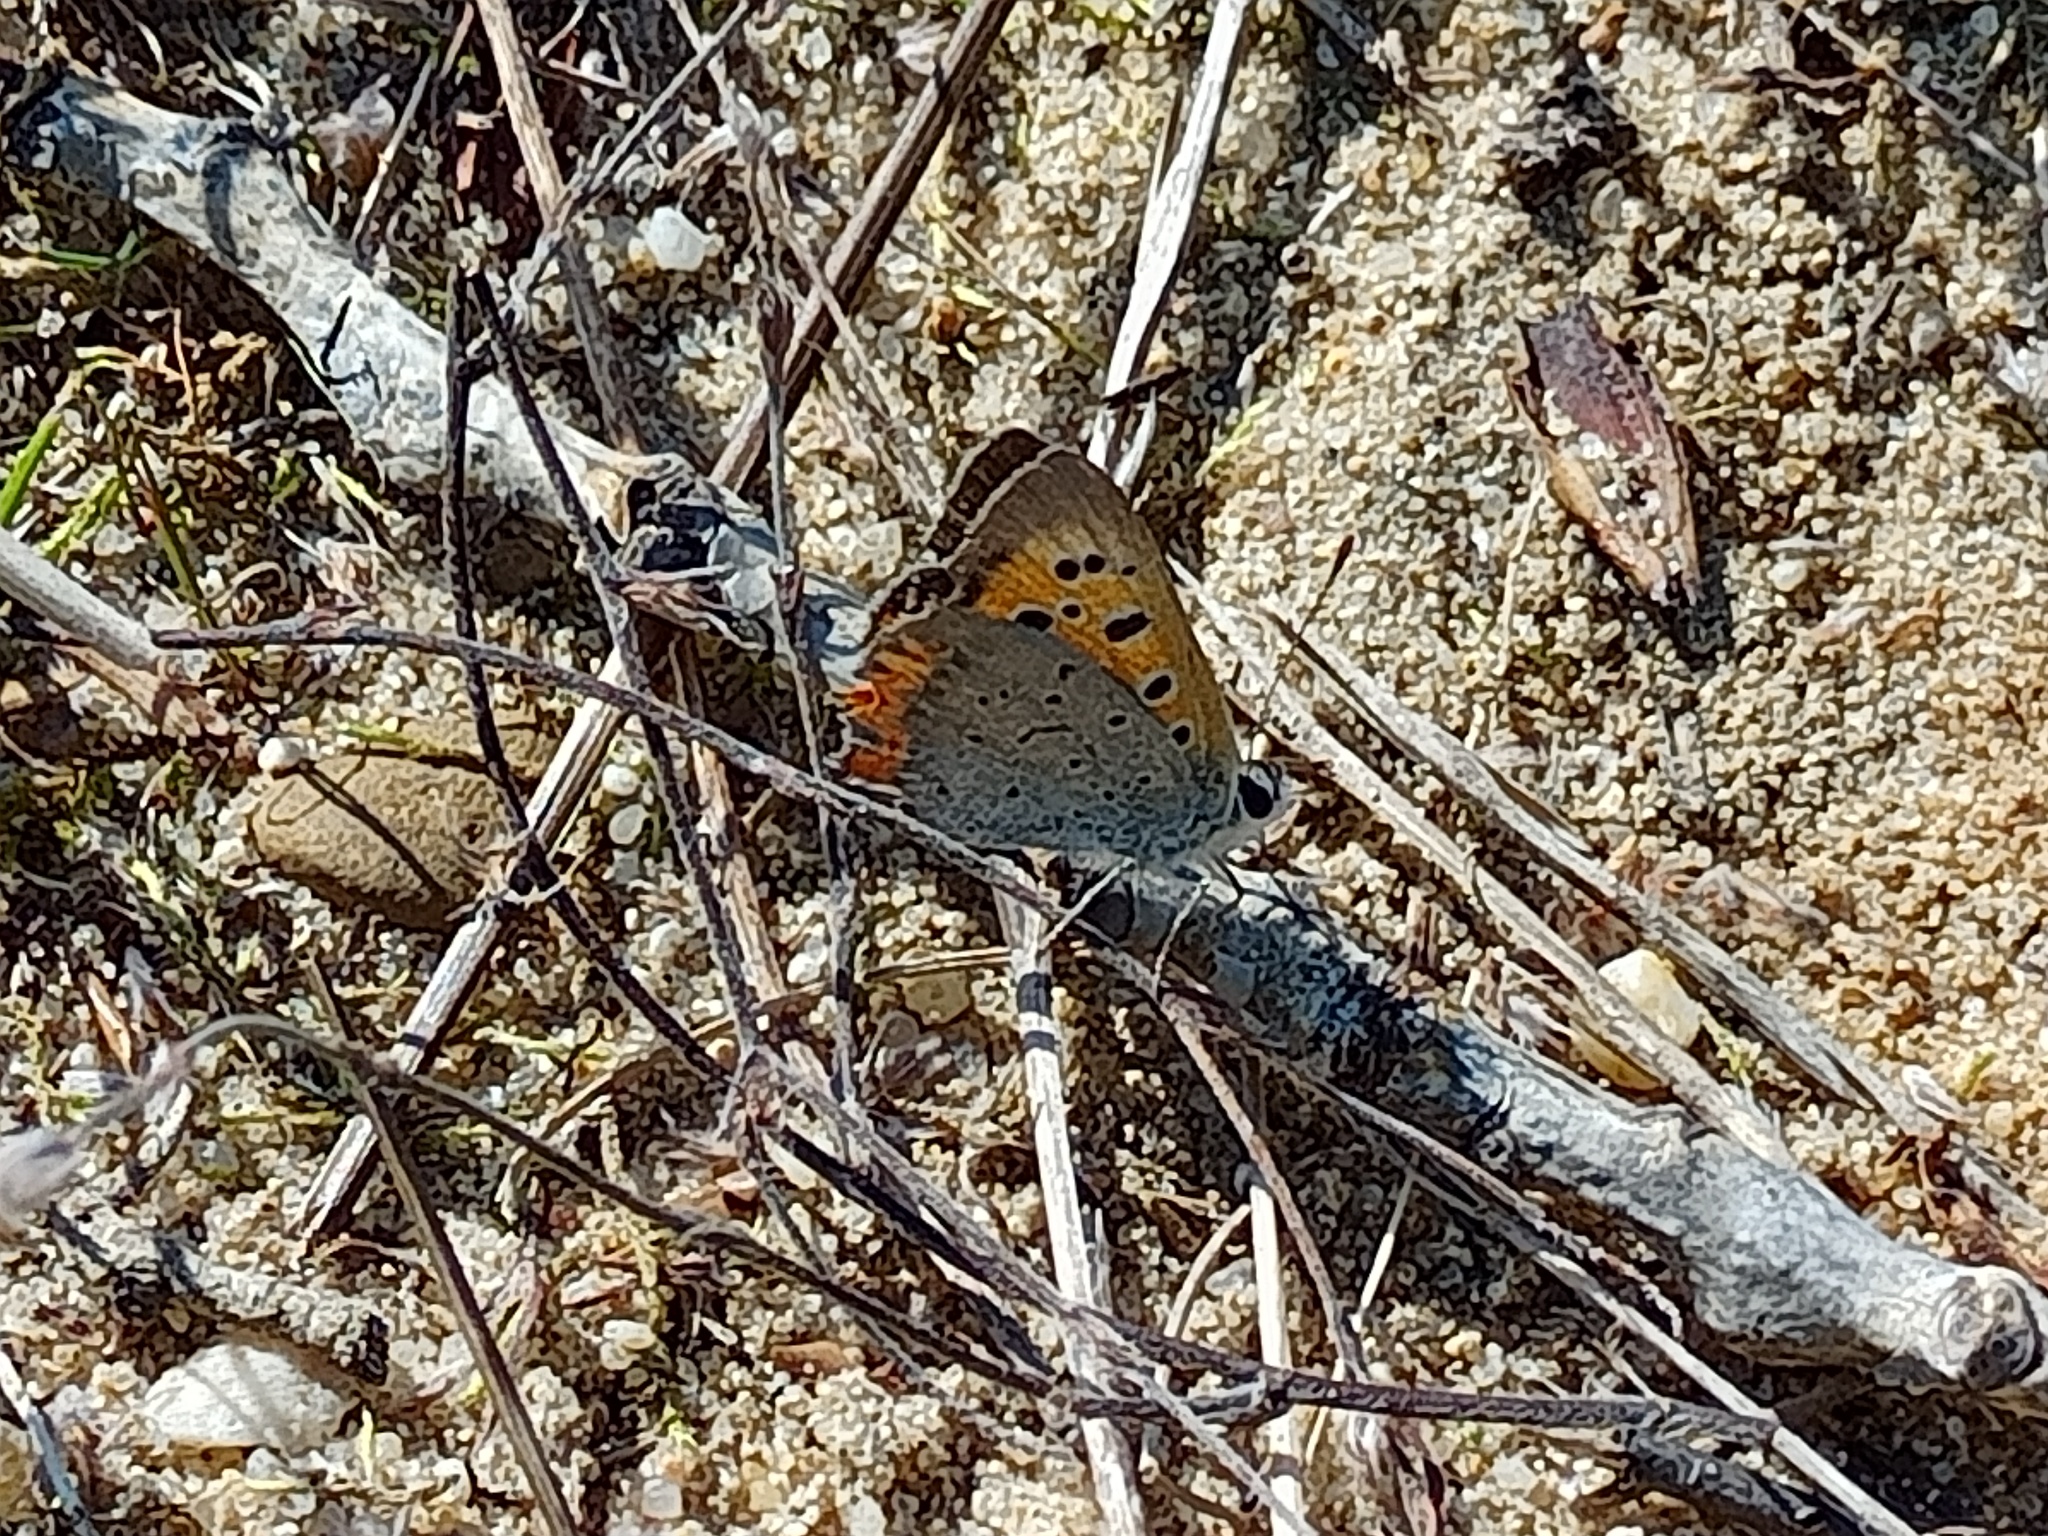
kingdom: Animalia
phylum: Arthropoda
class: Insecta
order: Lepidoptera
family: Lycaenidae
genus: Lycaena
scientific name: Lycaena phlaeas
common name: Small copper
